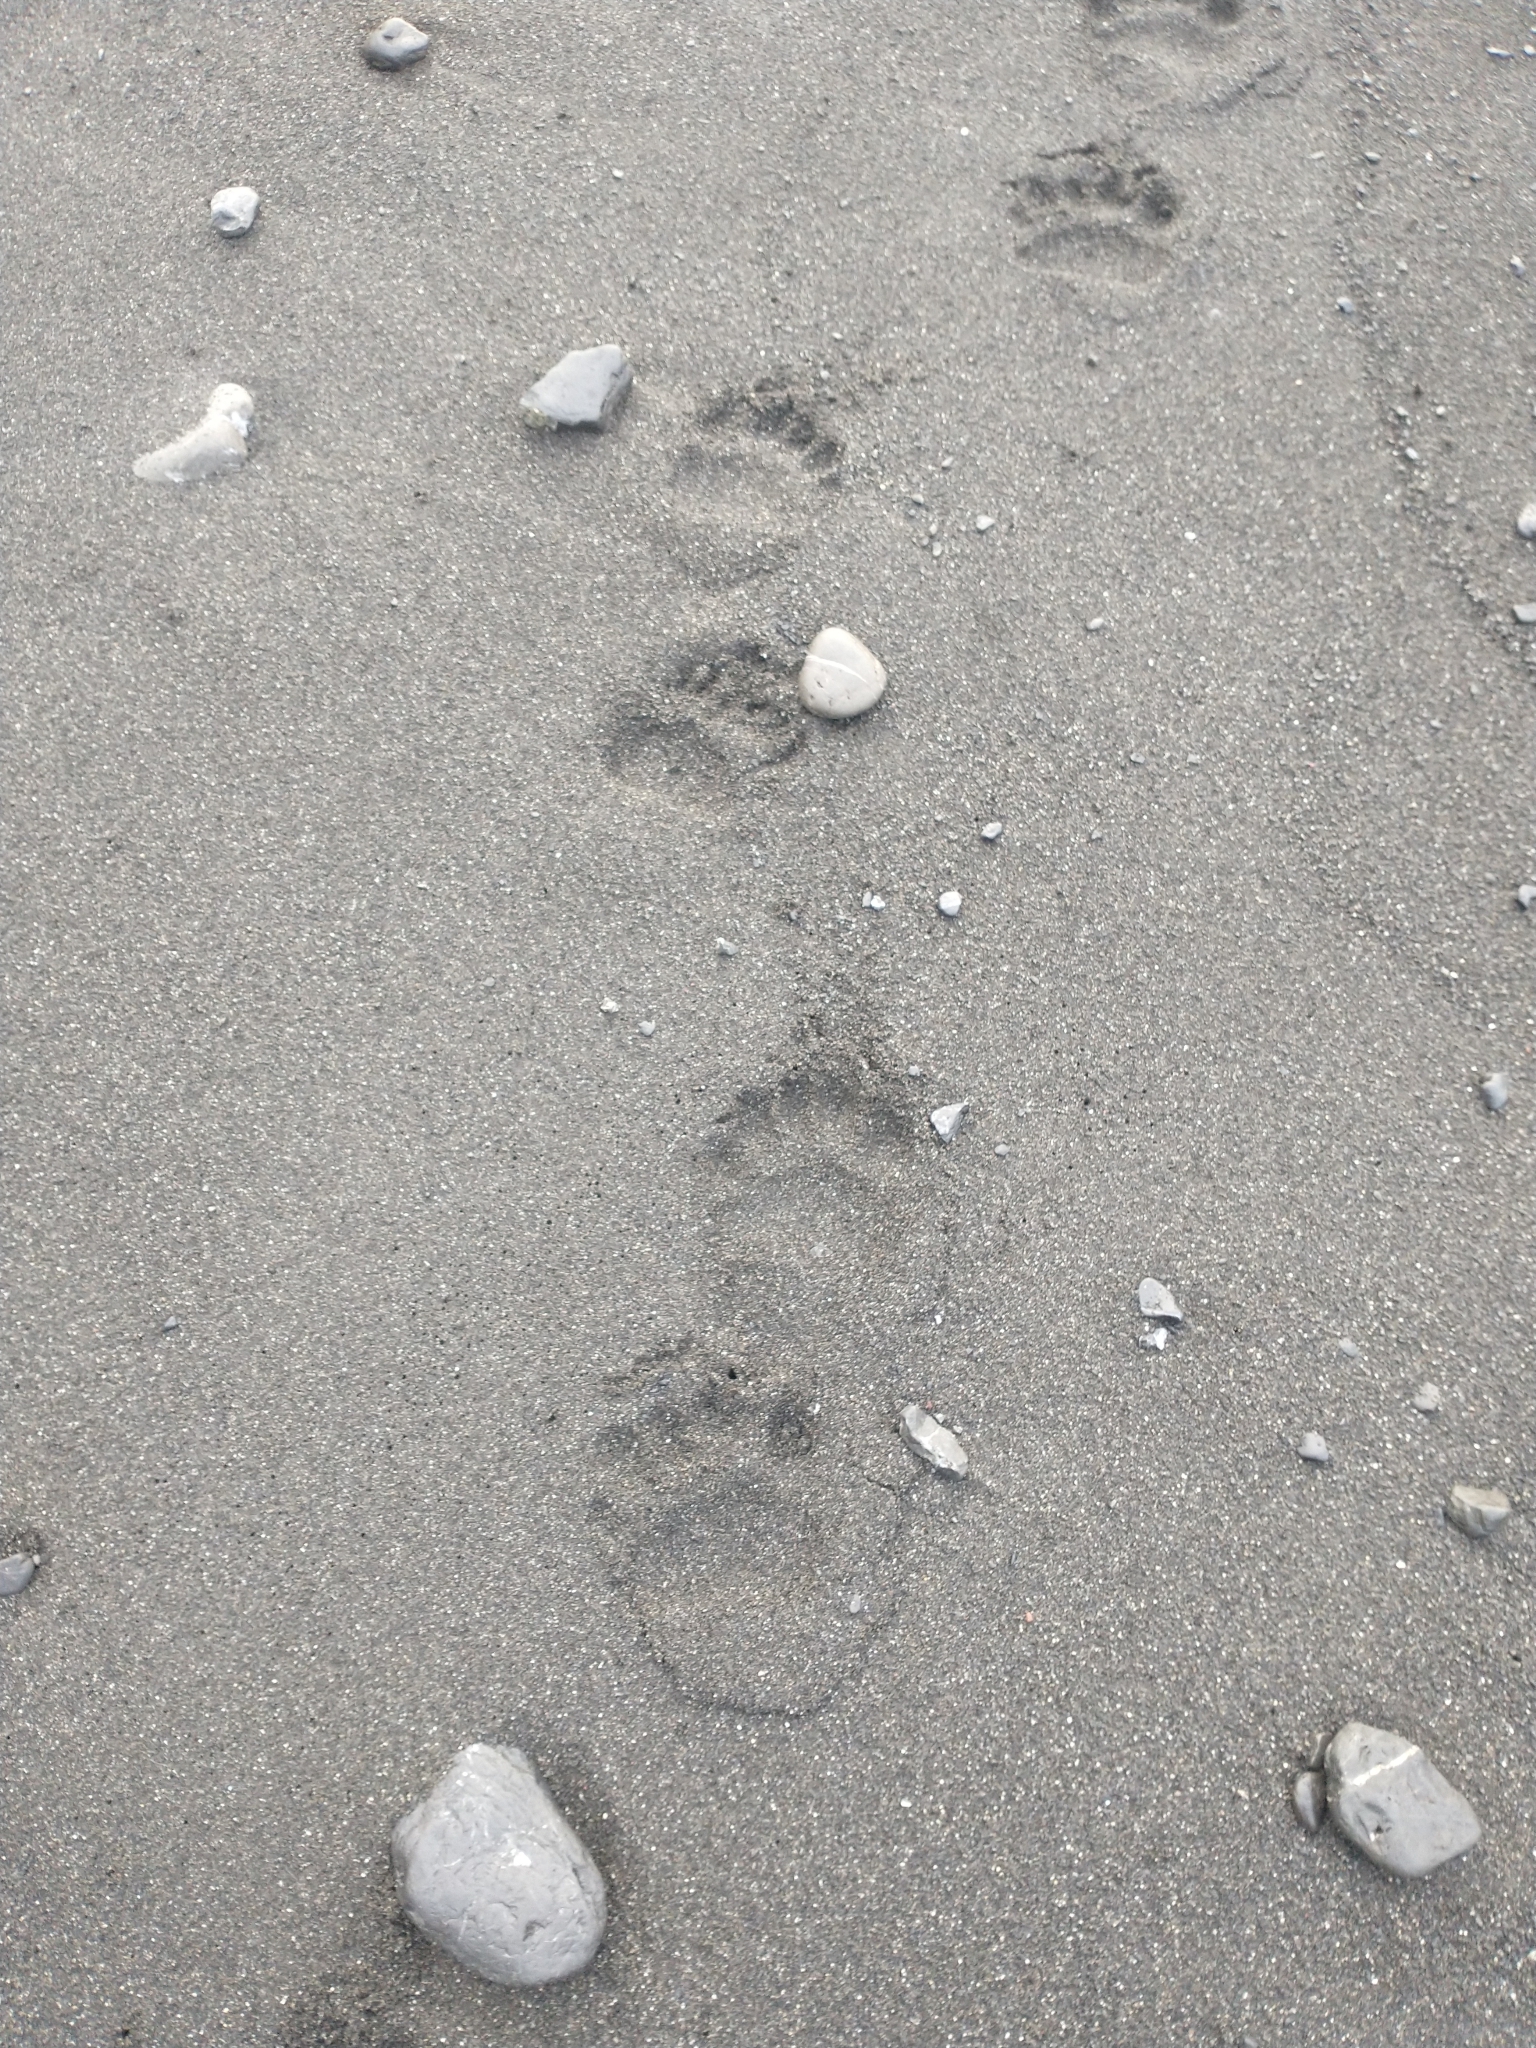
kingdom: Animalia
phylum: Chordata
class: Mammalia
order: Carnivora
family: Ursidae
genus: Ursus
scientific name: Ursus americanus
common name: American black bear
